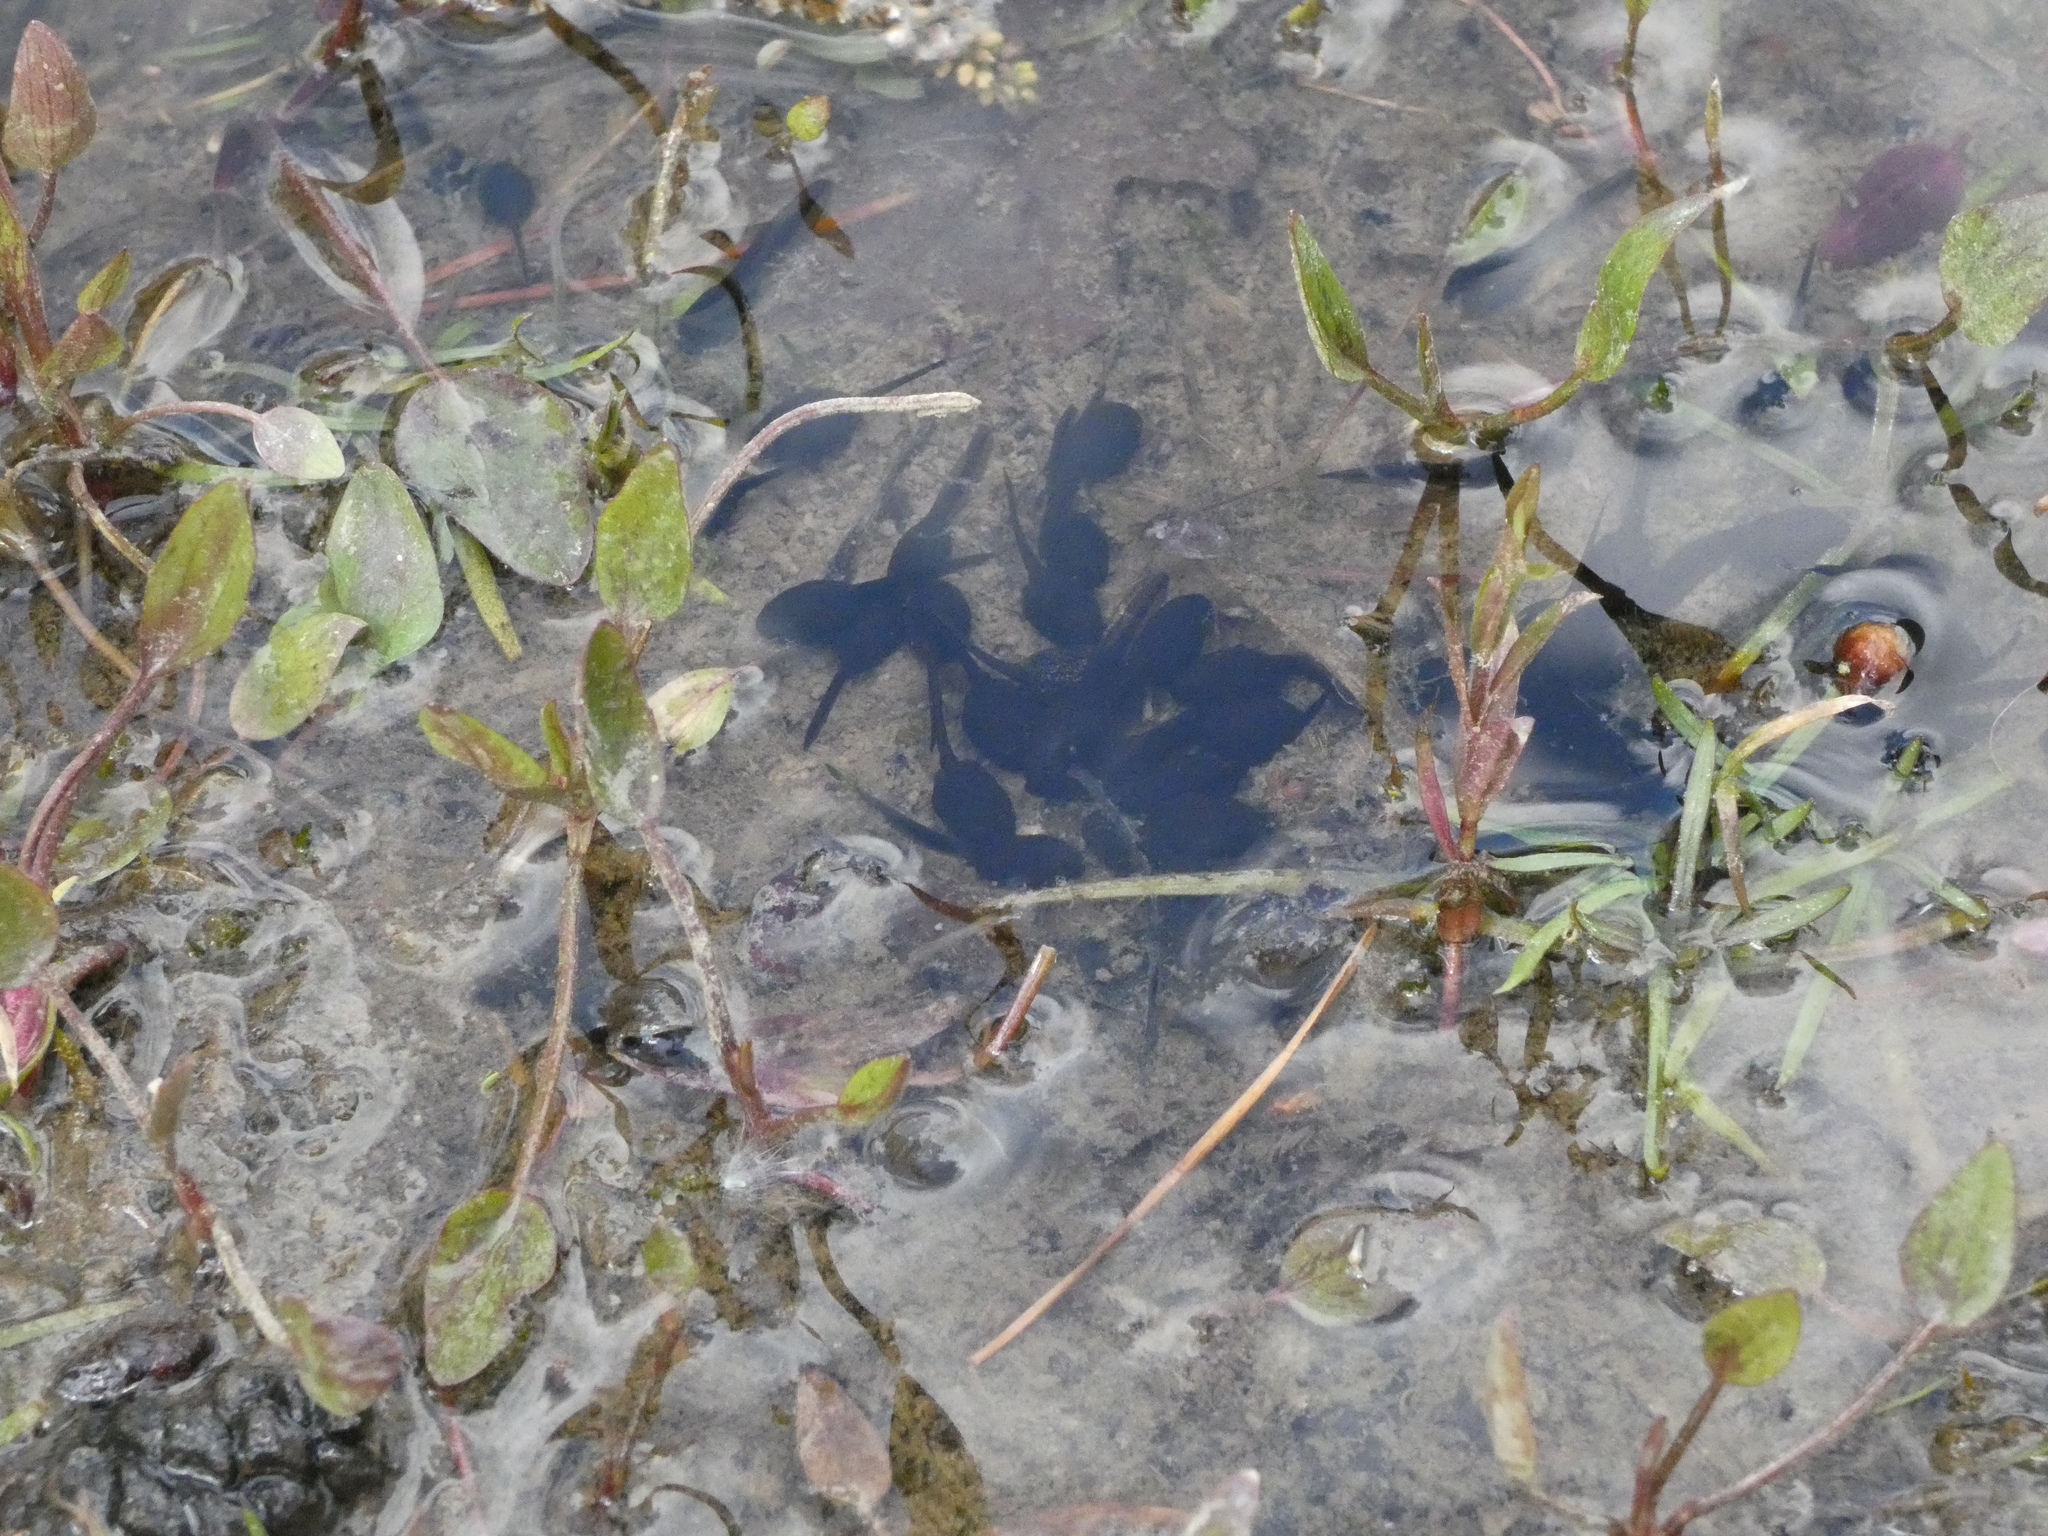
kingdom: Animalia
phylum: Chordata
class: Amphibia
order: Anura
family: Bufonidae
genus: Bufo
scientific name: Bufo spinosus
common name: Western common toad
